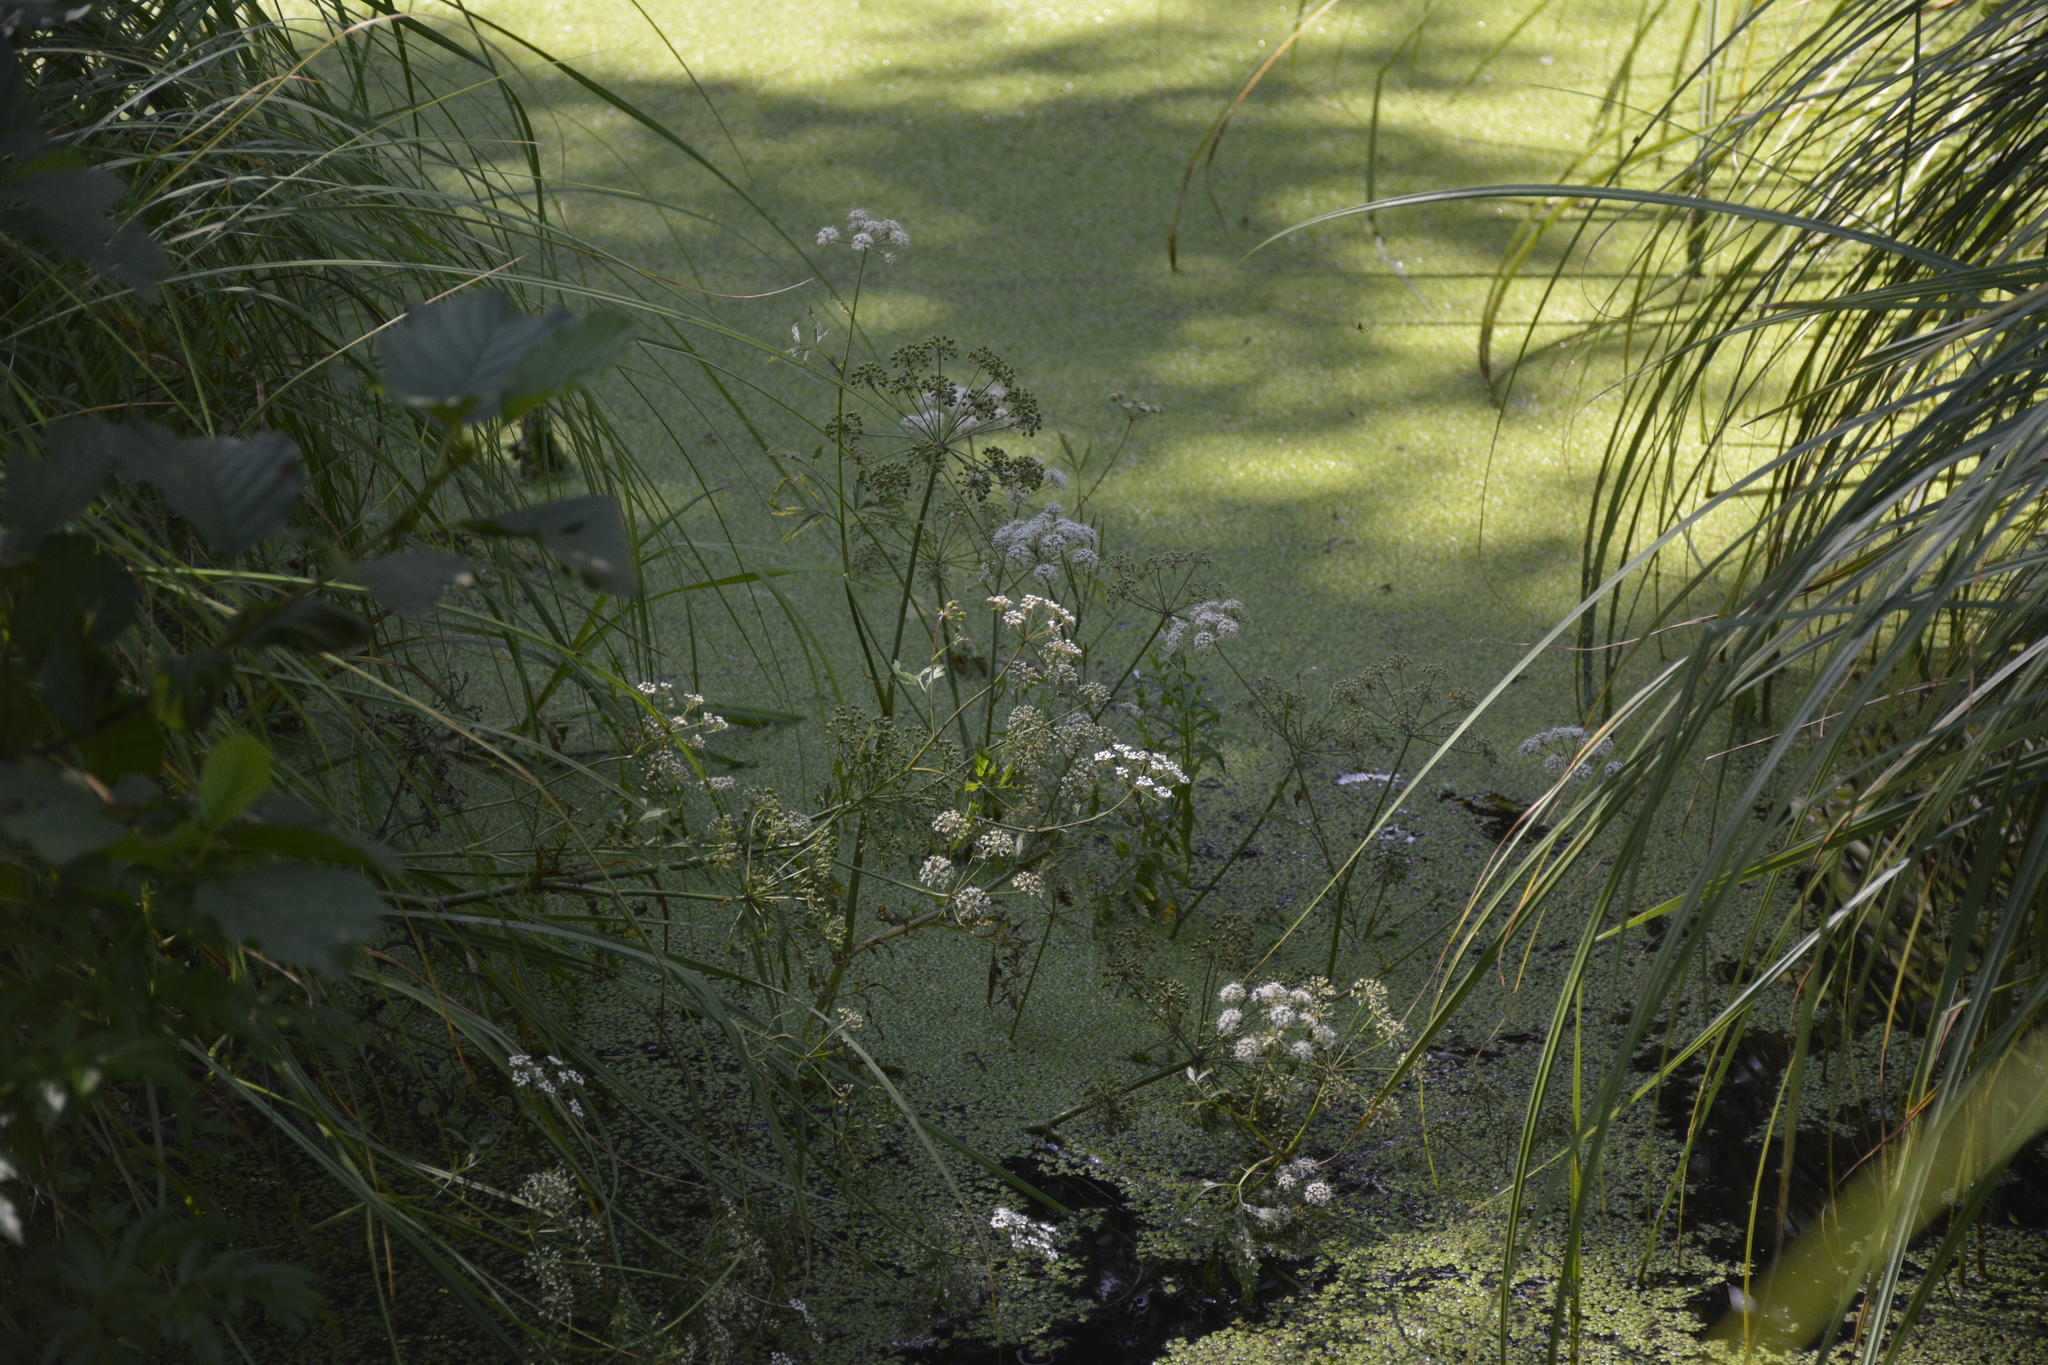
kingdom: Plantae
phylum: Tracheophyta
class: Magnoliopsida
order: Apiales
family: Apiaceae
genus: Oenanthe
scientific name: Oenanthe aquatica
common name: Fine-leaved water-dropwort
